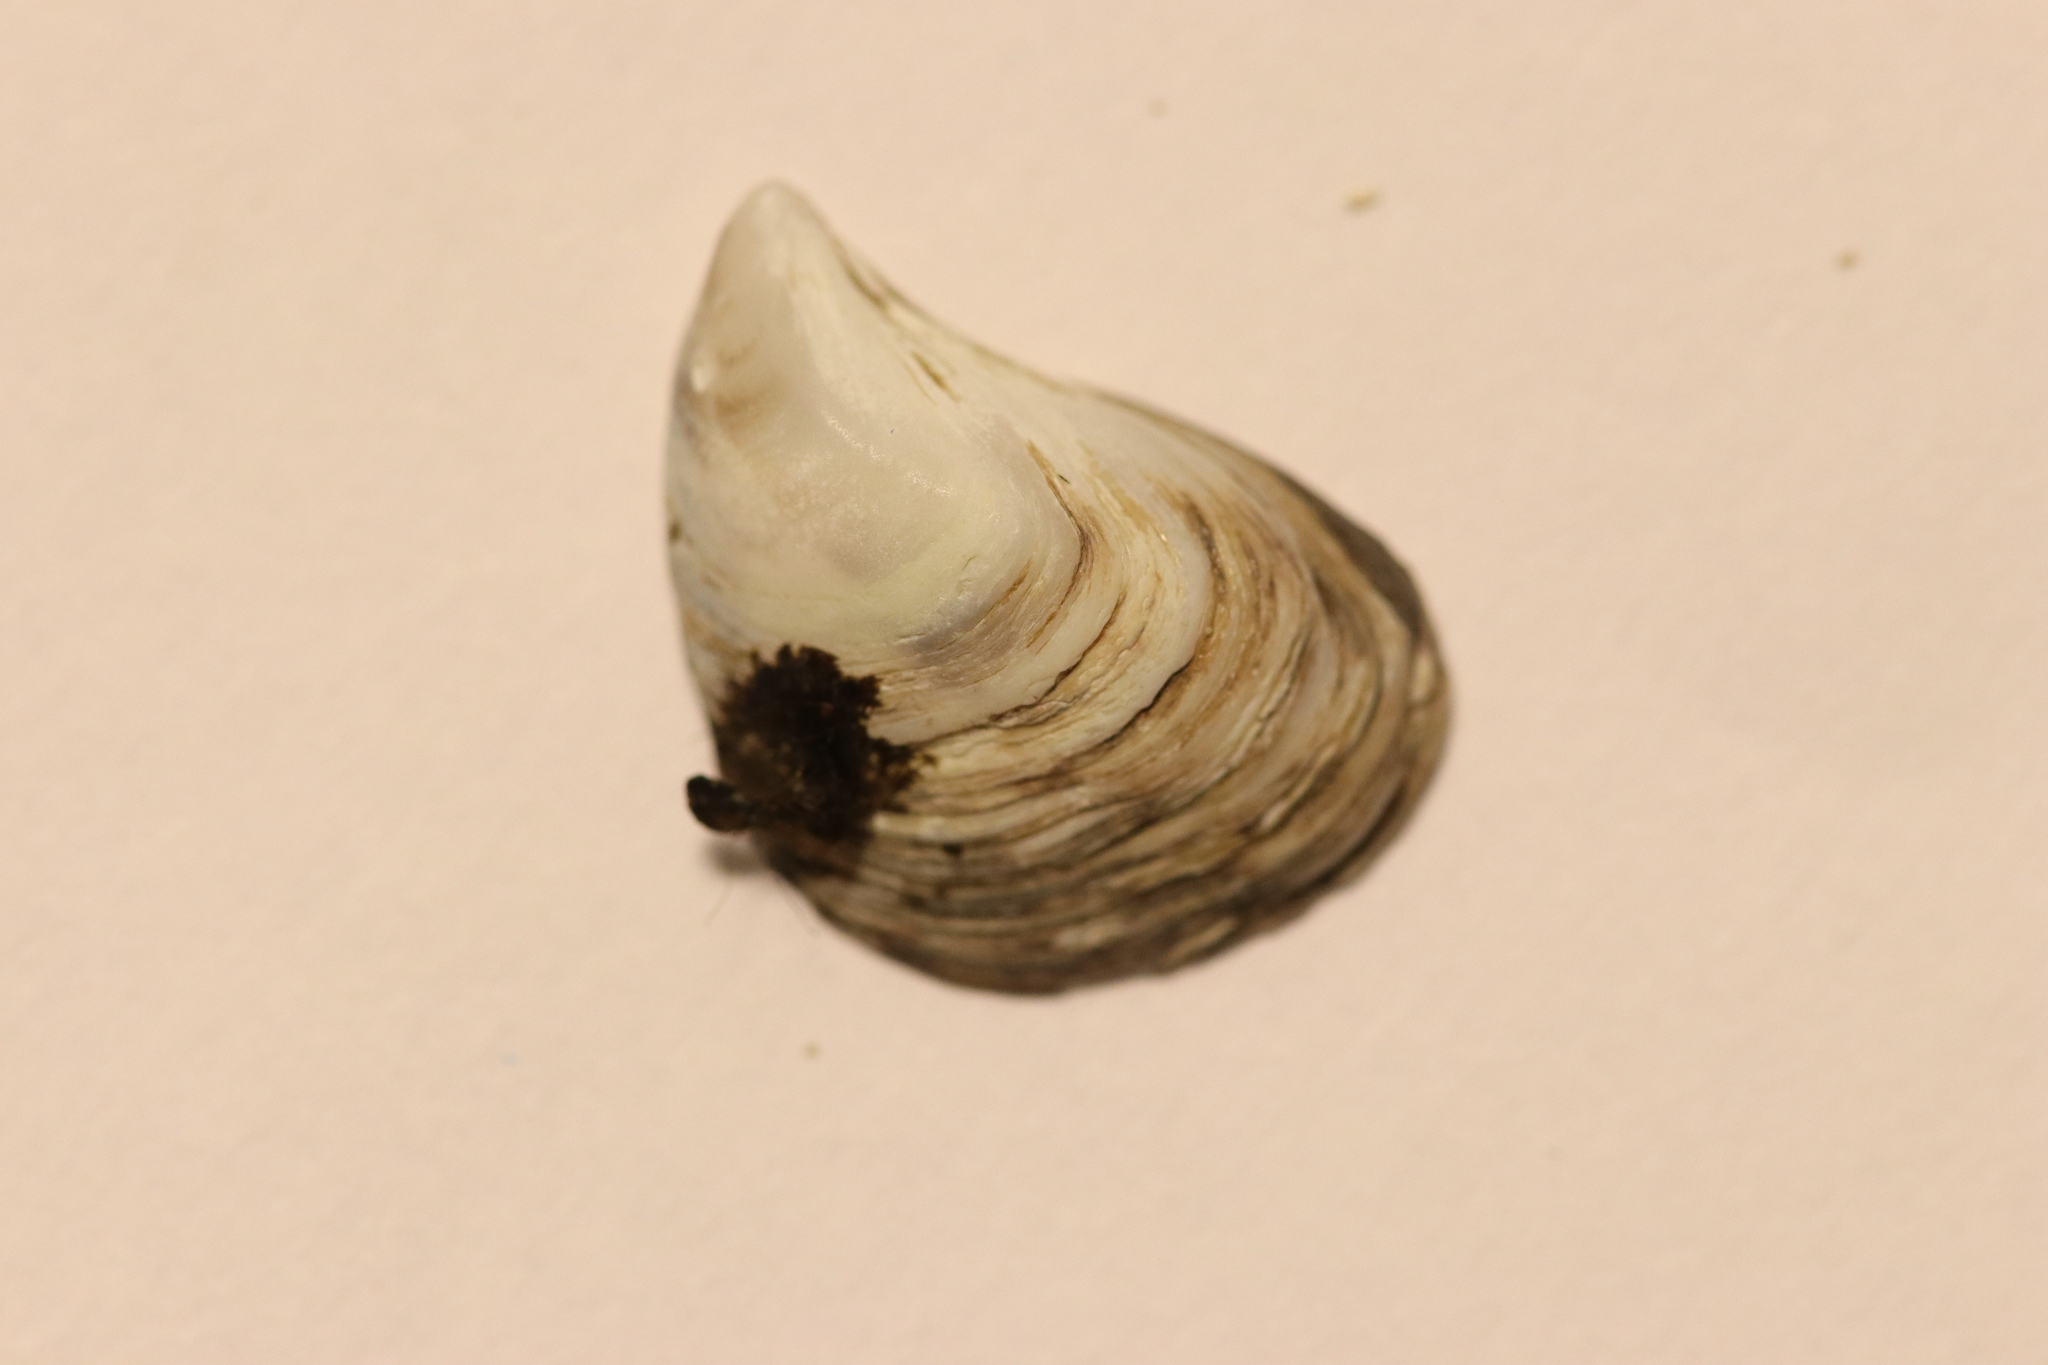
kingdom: Animalia
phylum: Mollusca
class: Bivalvia
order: Myida
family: Dreissenidae
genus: Dreissena
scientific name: Dreissena bugensis
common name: Quagga mussel
